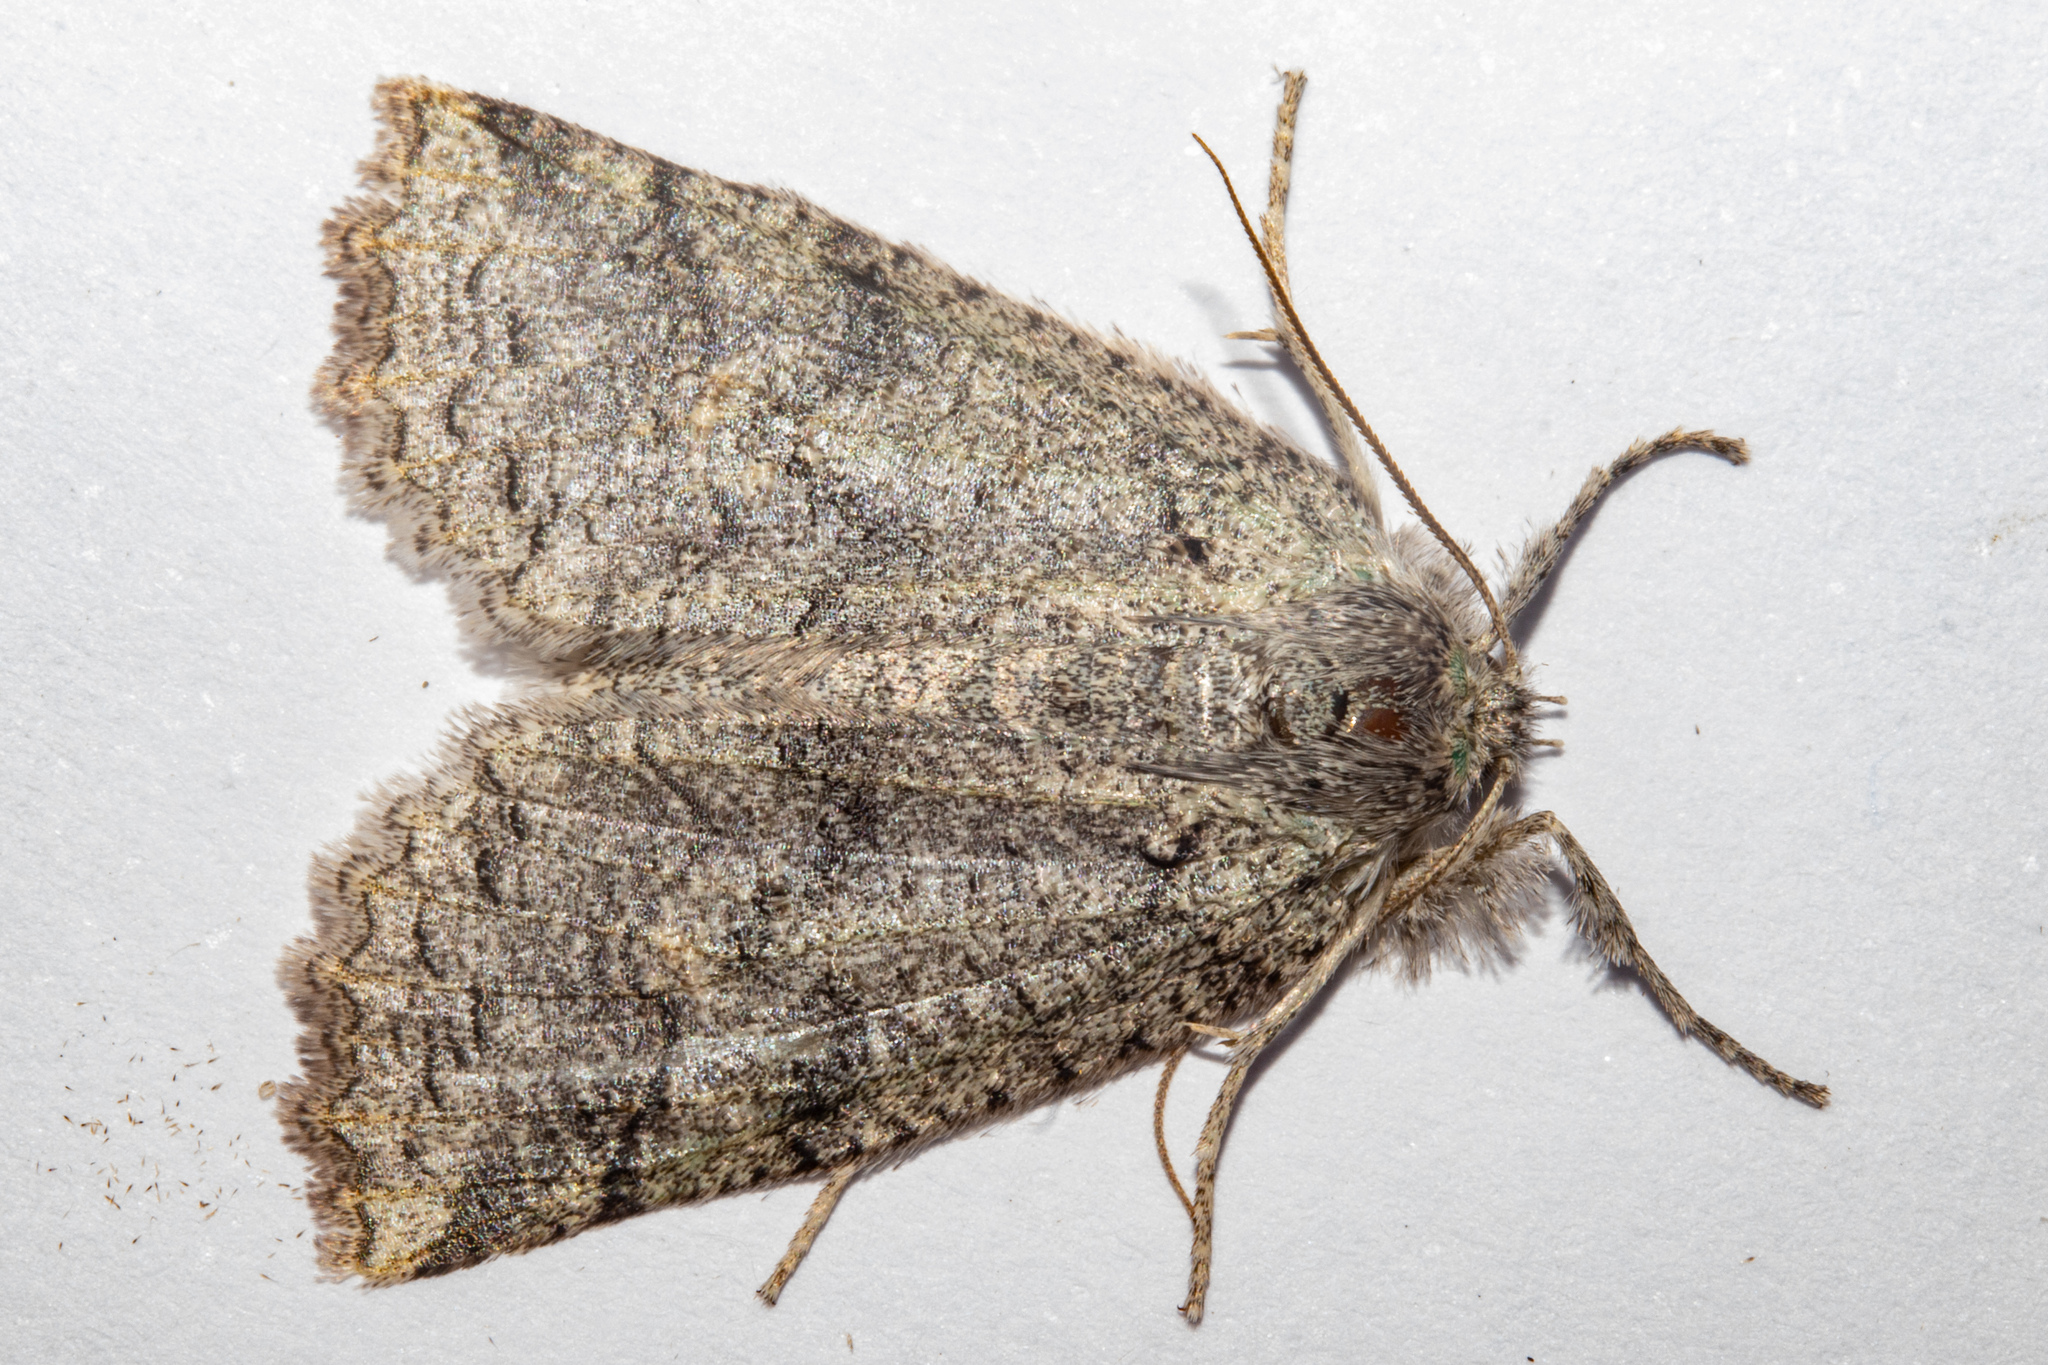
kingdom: Animalia
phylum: Arthropoda
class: Insecta
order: Lepidoptera
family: Geometridae
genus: Declana
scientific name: Declana floccosa
